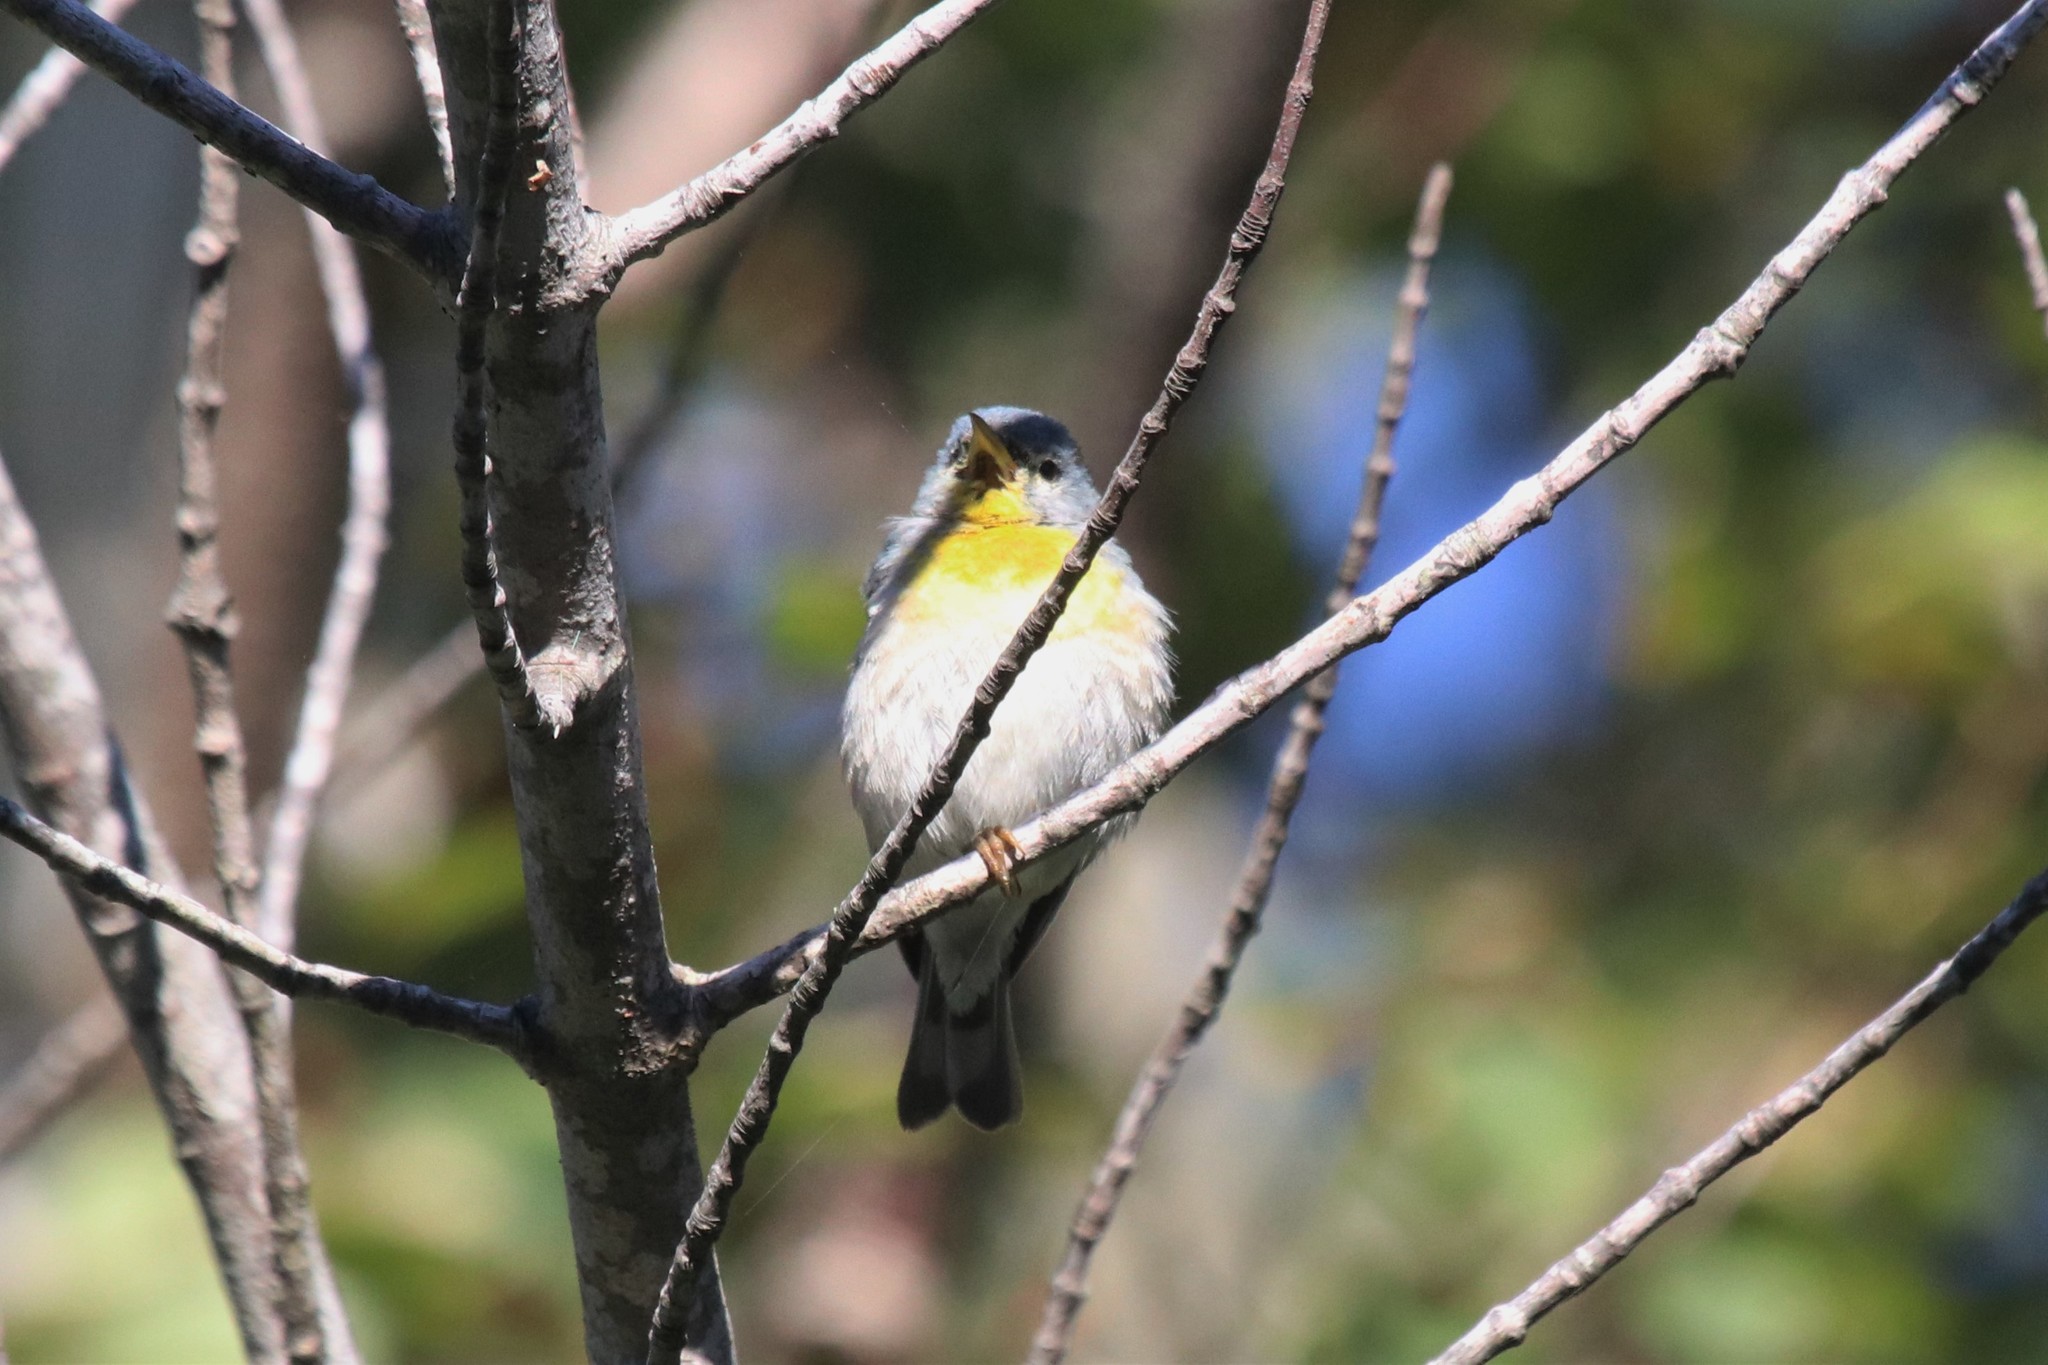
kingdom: Animalia
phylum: Chordata
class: Aves
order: Passeriformes
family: Parulidae
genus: Setophaga
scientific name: Setophaga americana
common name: Northern parula
